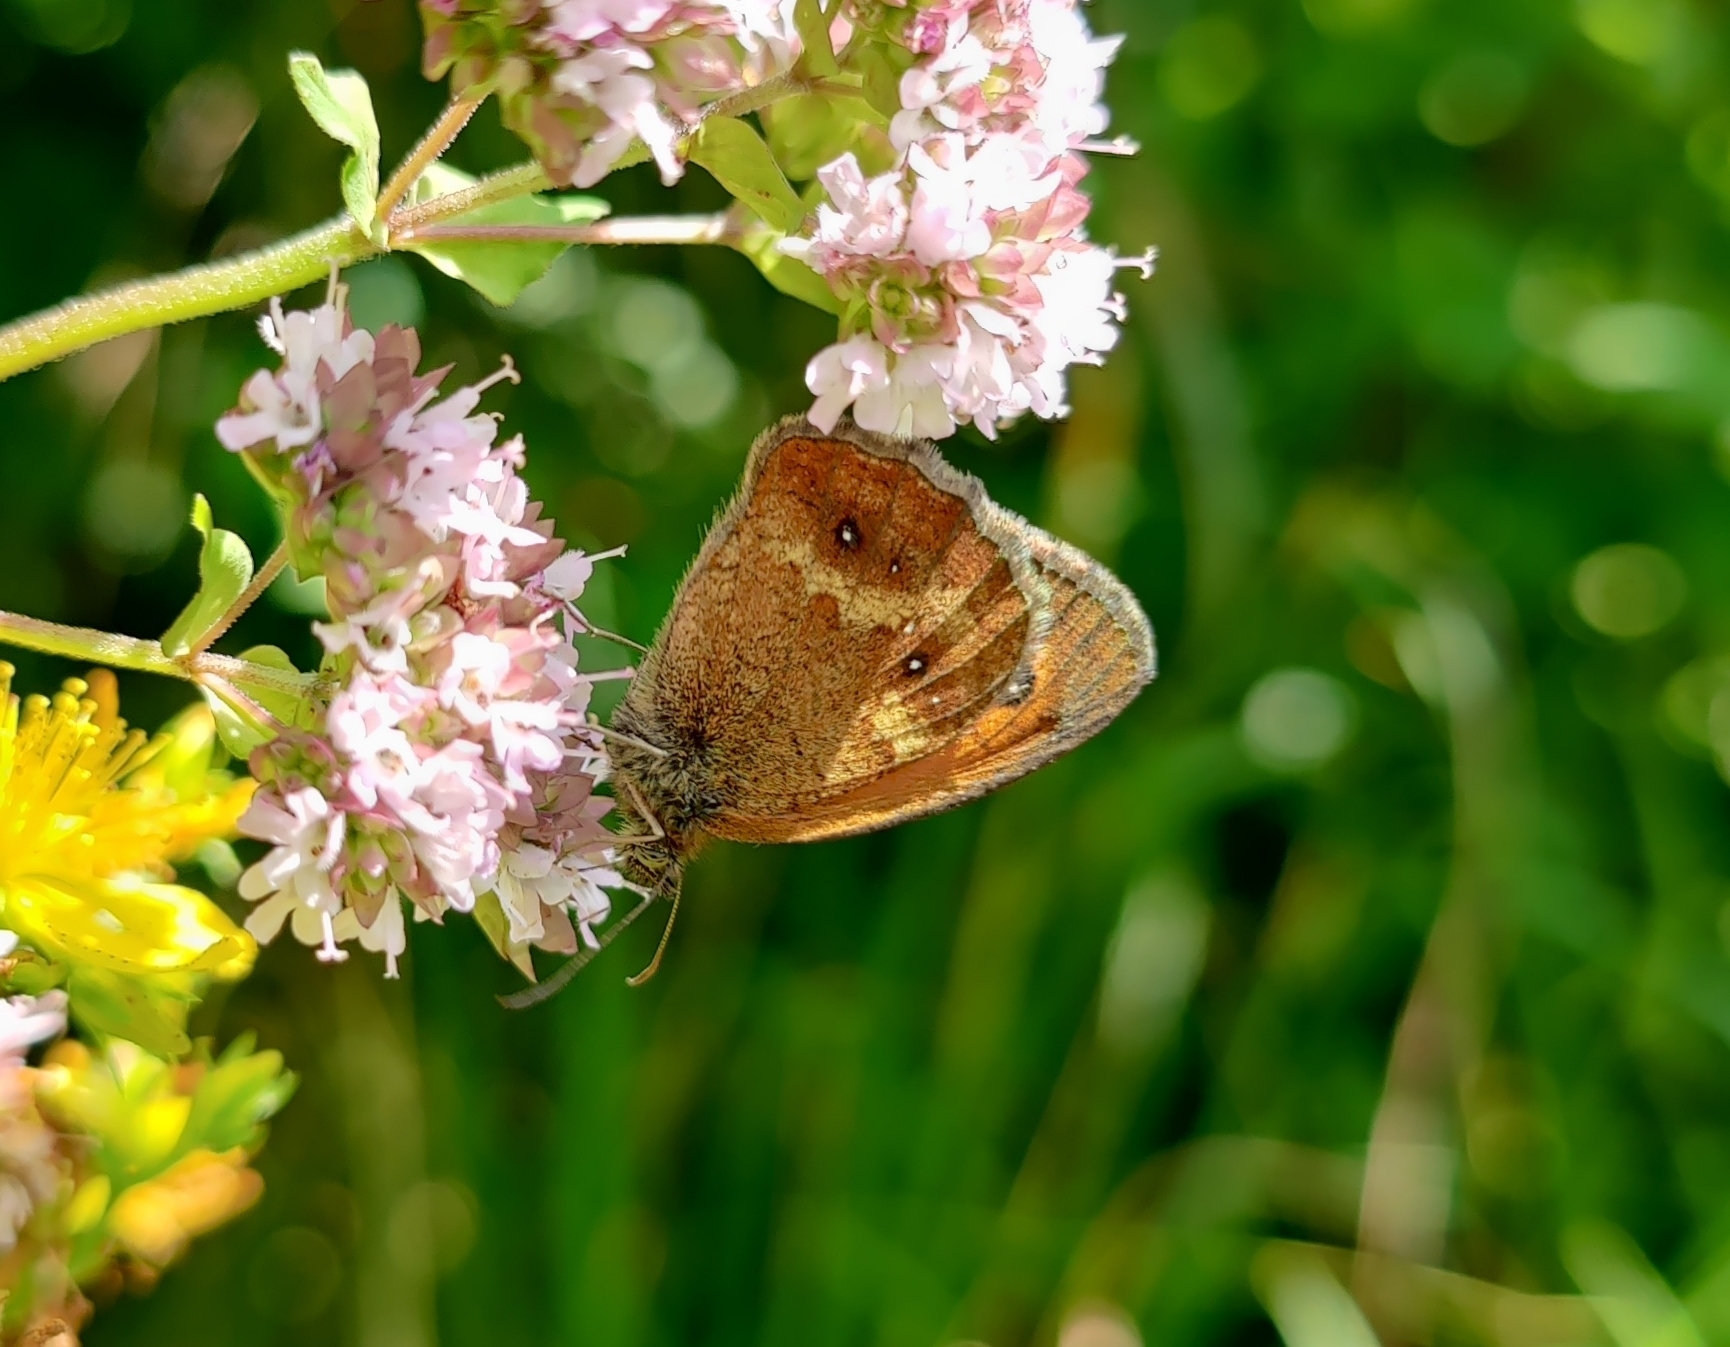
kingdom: Animalia
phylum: Arthropoda
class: Insecta
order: Lepidoptera
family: Nymphalidae
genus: Pyronia
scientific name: Pyronia tithonus
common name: Gatekeeper
